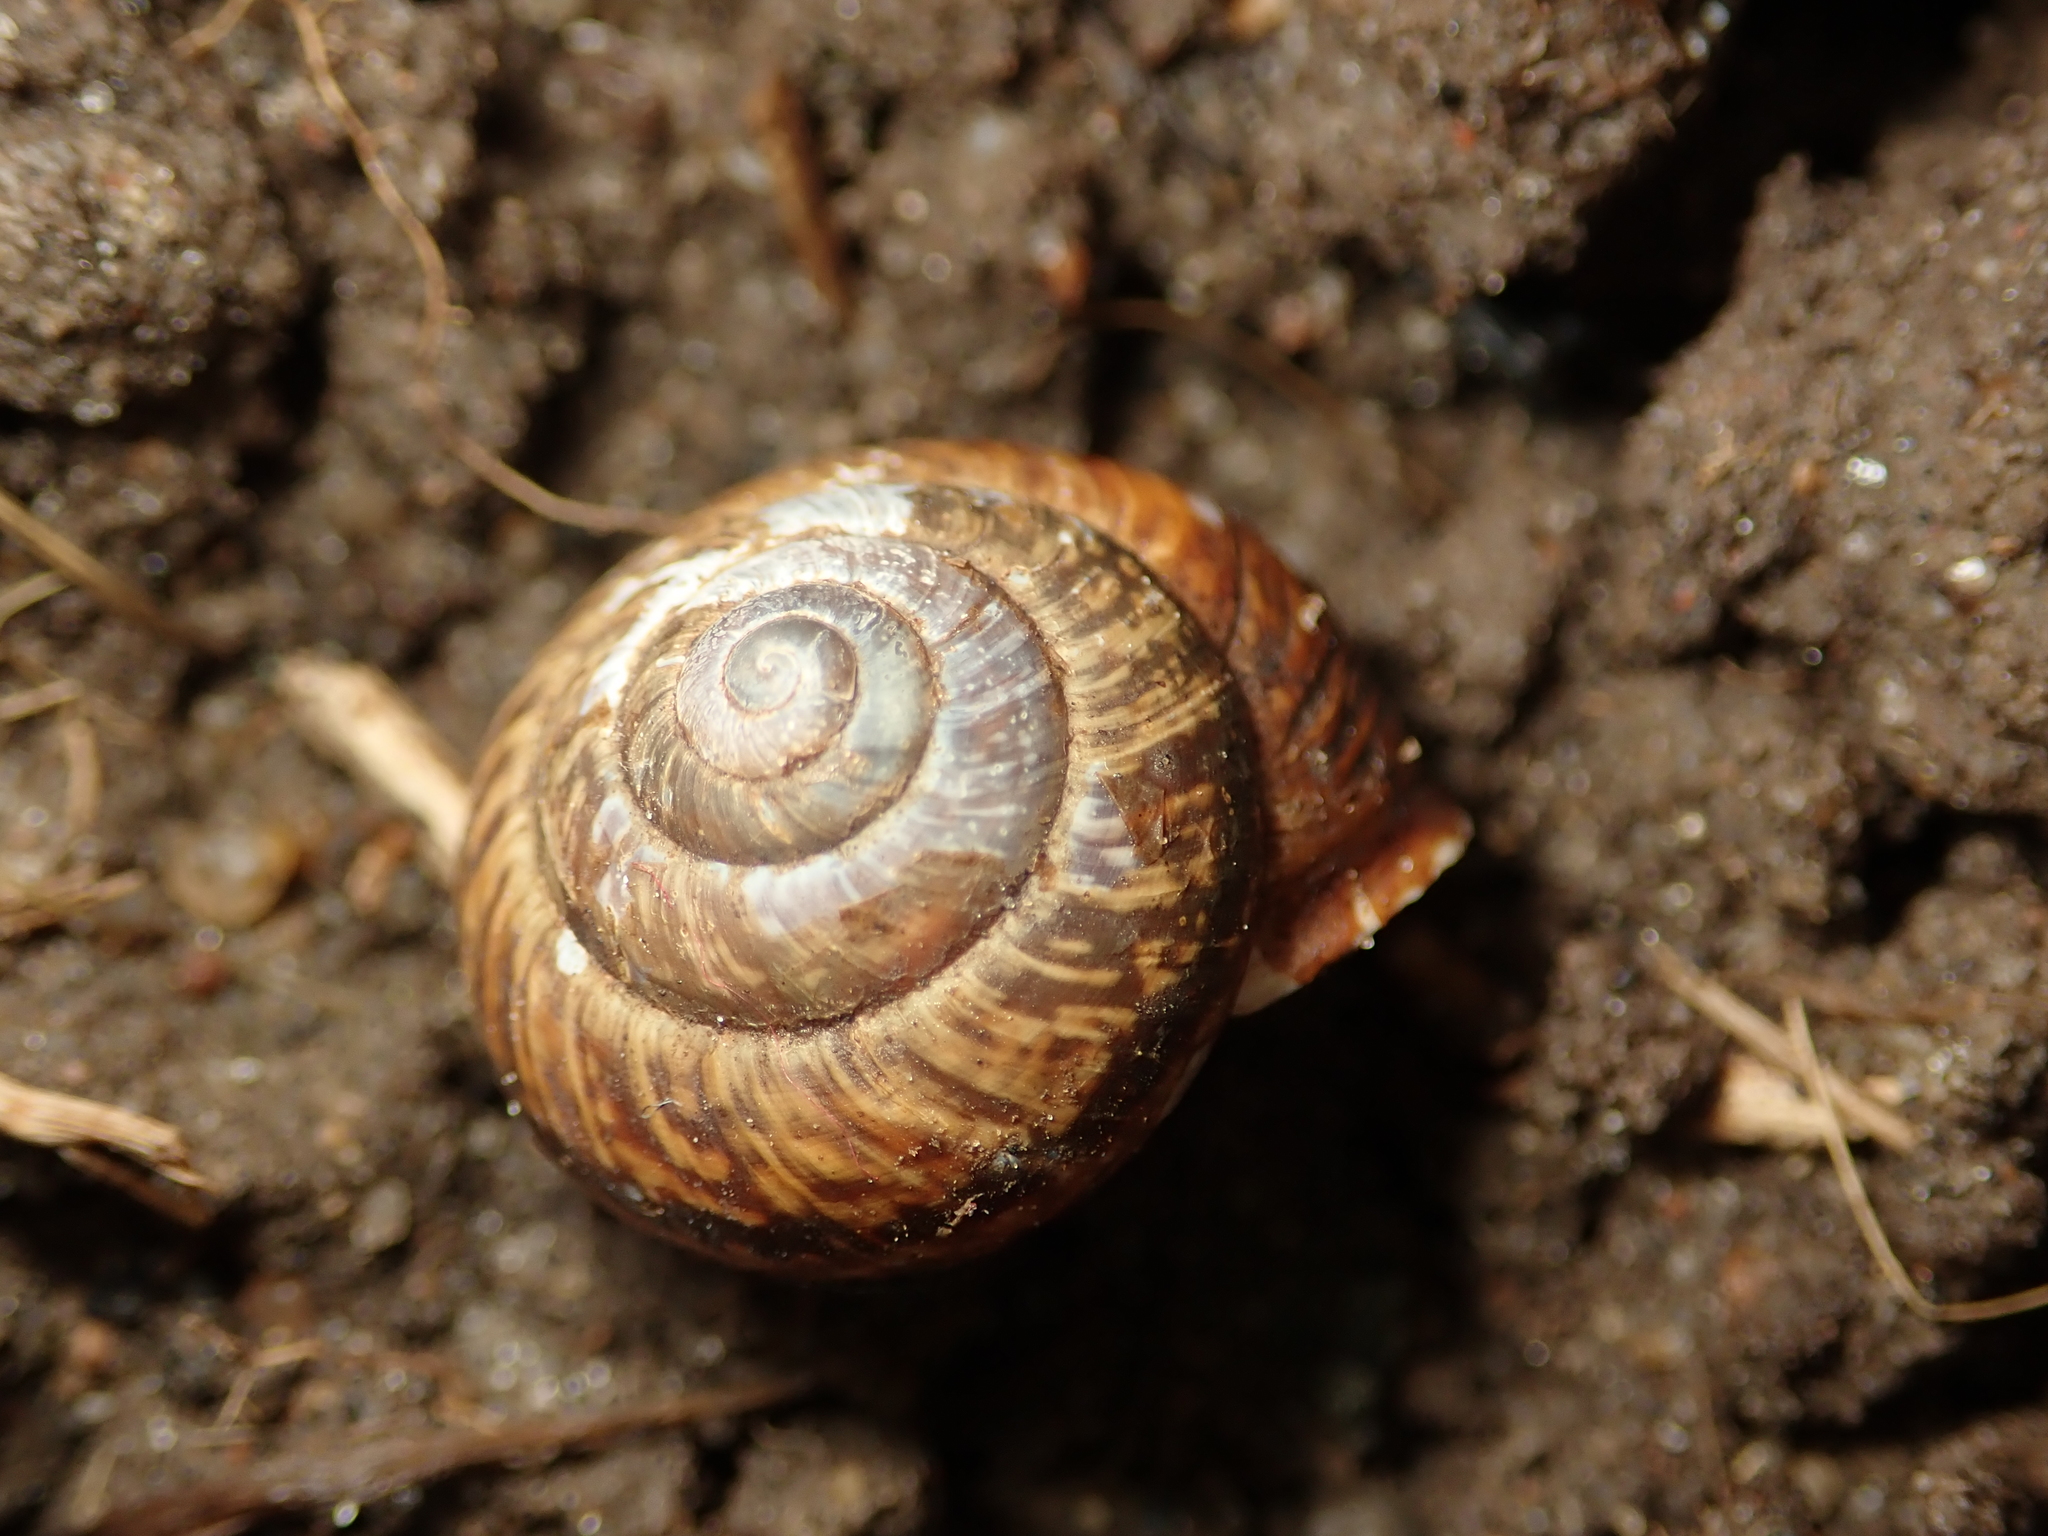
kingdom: Animalia
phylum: Mollusca
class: Gastropoda
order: Stylommatophora
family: Helicidae
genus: Arianta
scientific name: Arianta arbustorum
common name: Copse snail
